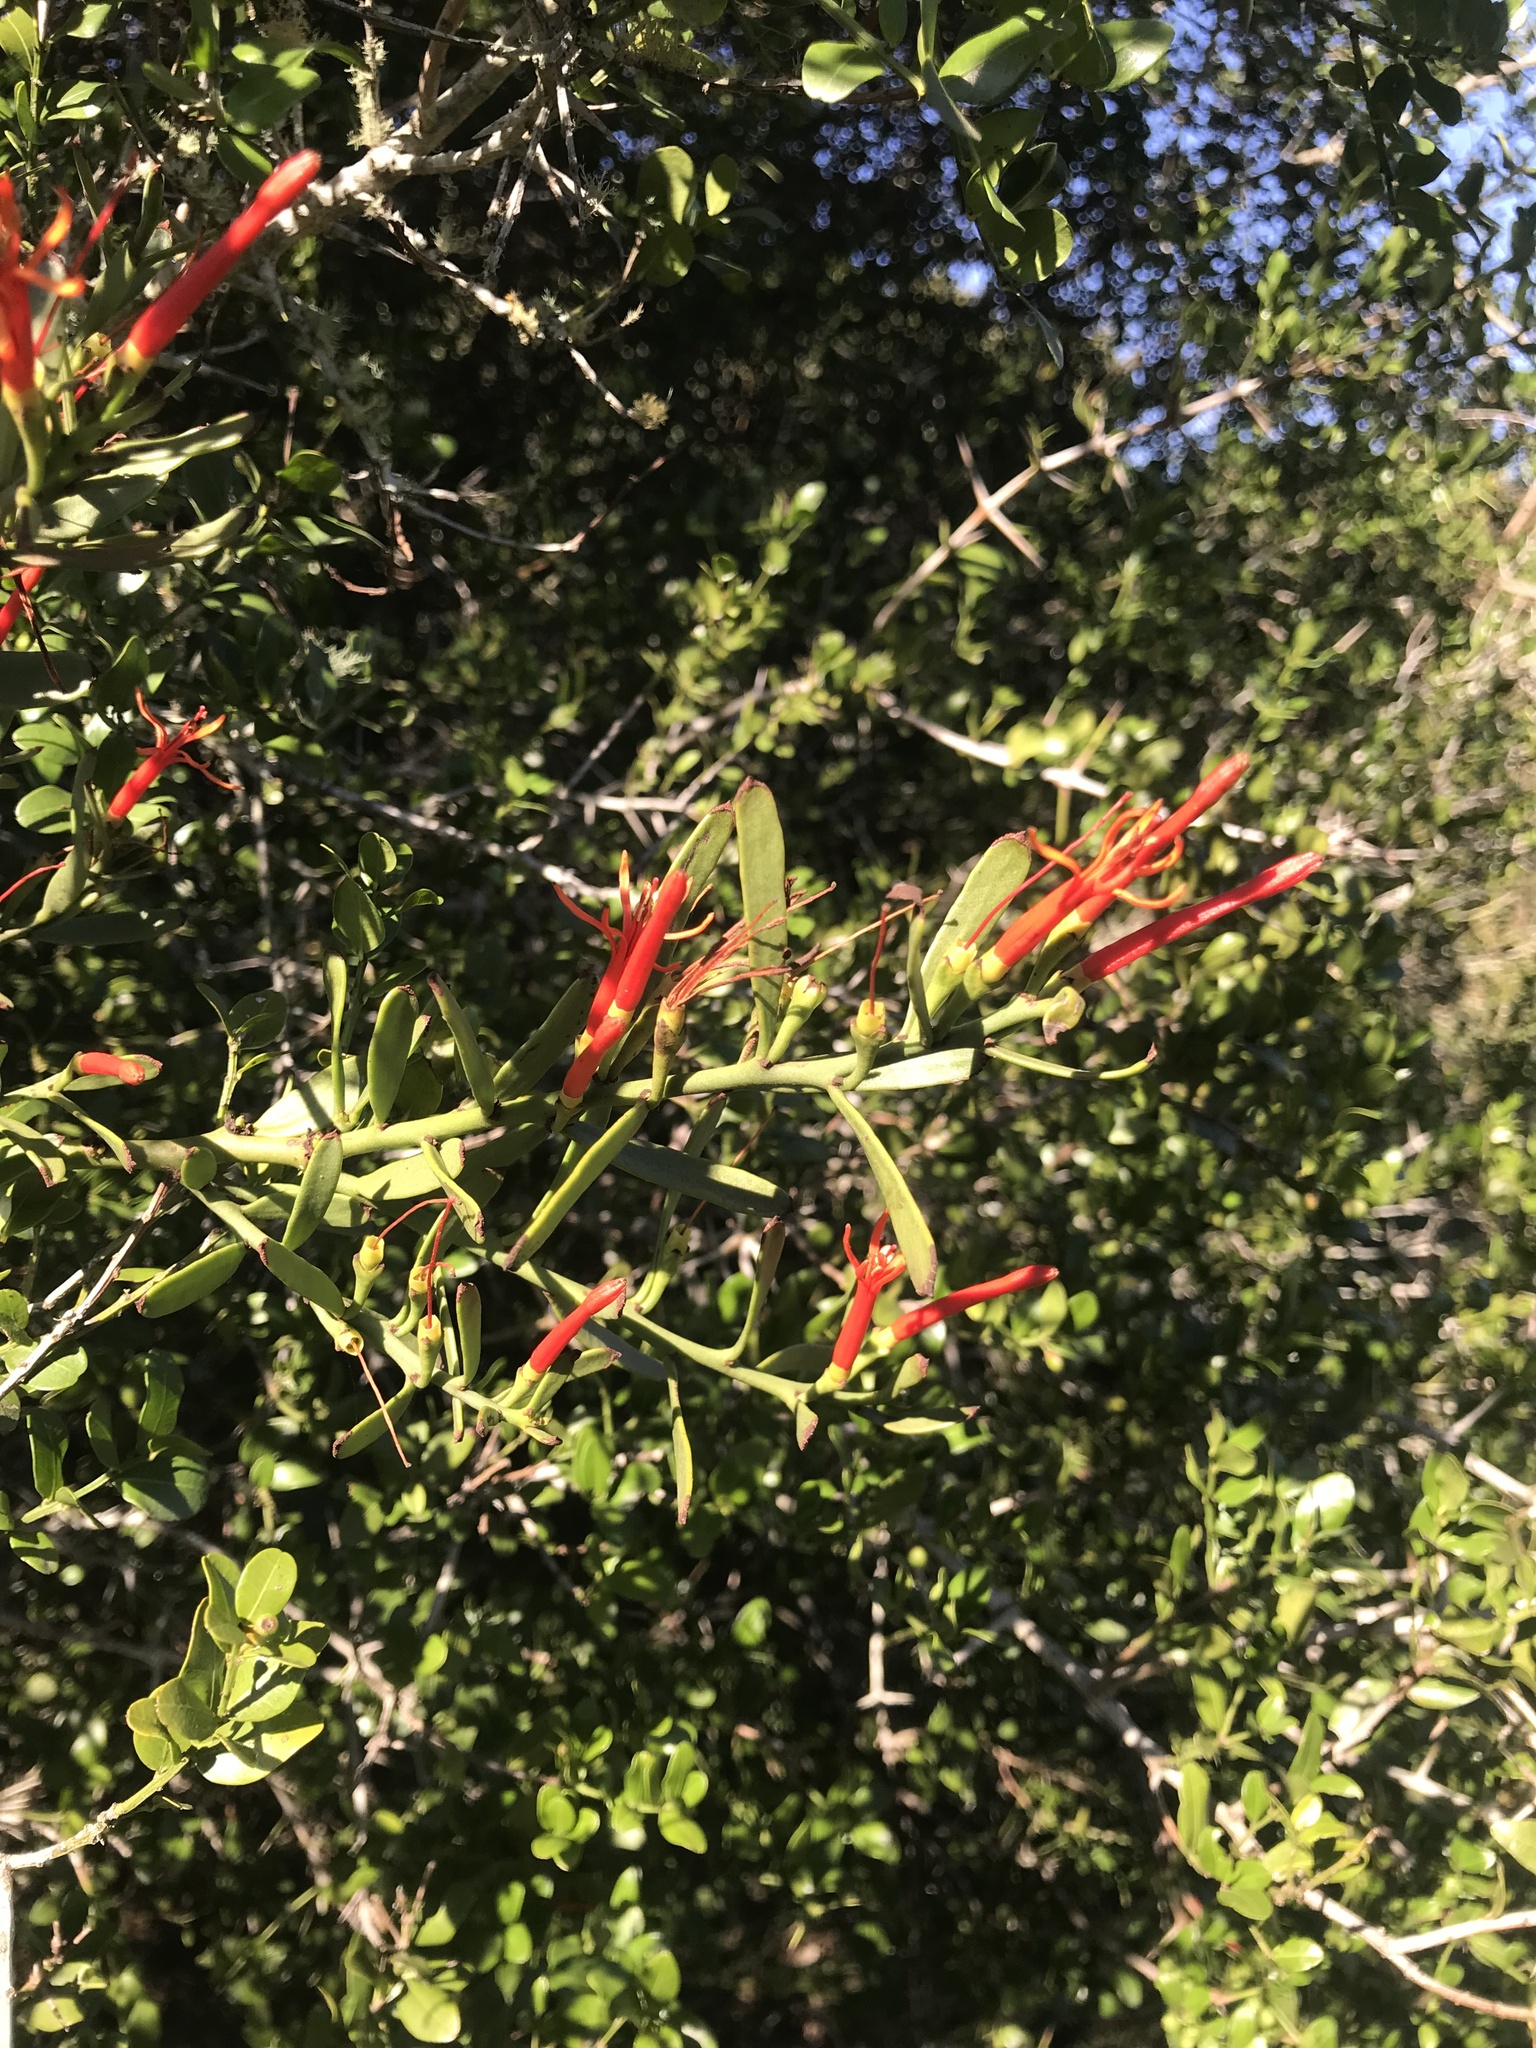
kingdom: Plantae
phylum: Tracheophyta
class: Magnoliopsida
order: Santalales
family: Loranthaceae
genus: Ligaria
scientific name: Ligaria cuneifolia
